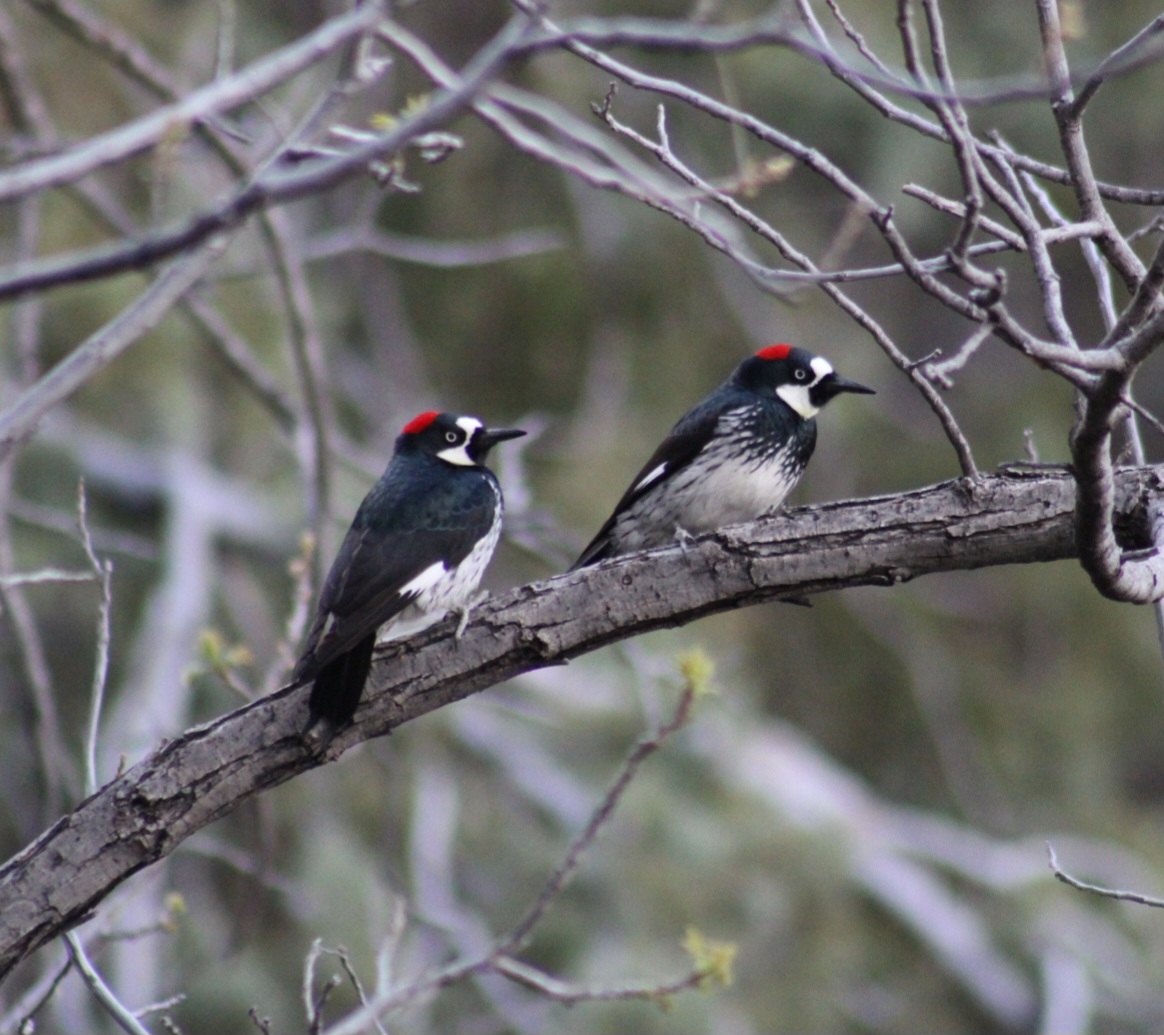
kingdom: Animalia
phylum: Chordata
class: Aves
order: Piciformes
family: Picidae
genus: Melanerpes
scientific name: Melanerpes formicivorus
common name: Acorn woodpecker
